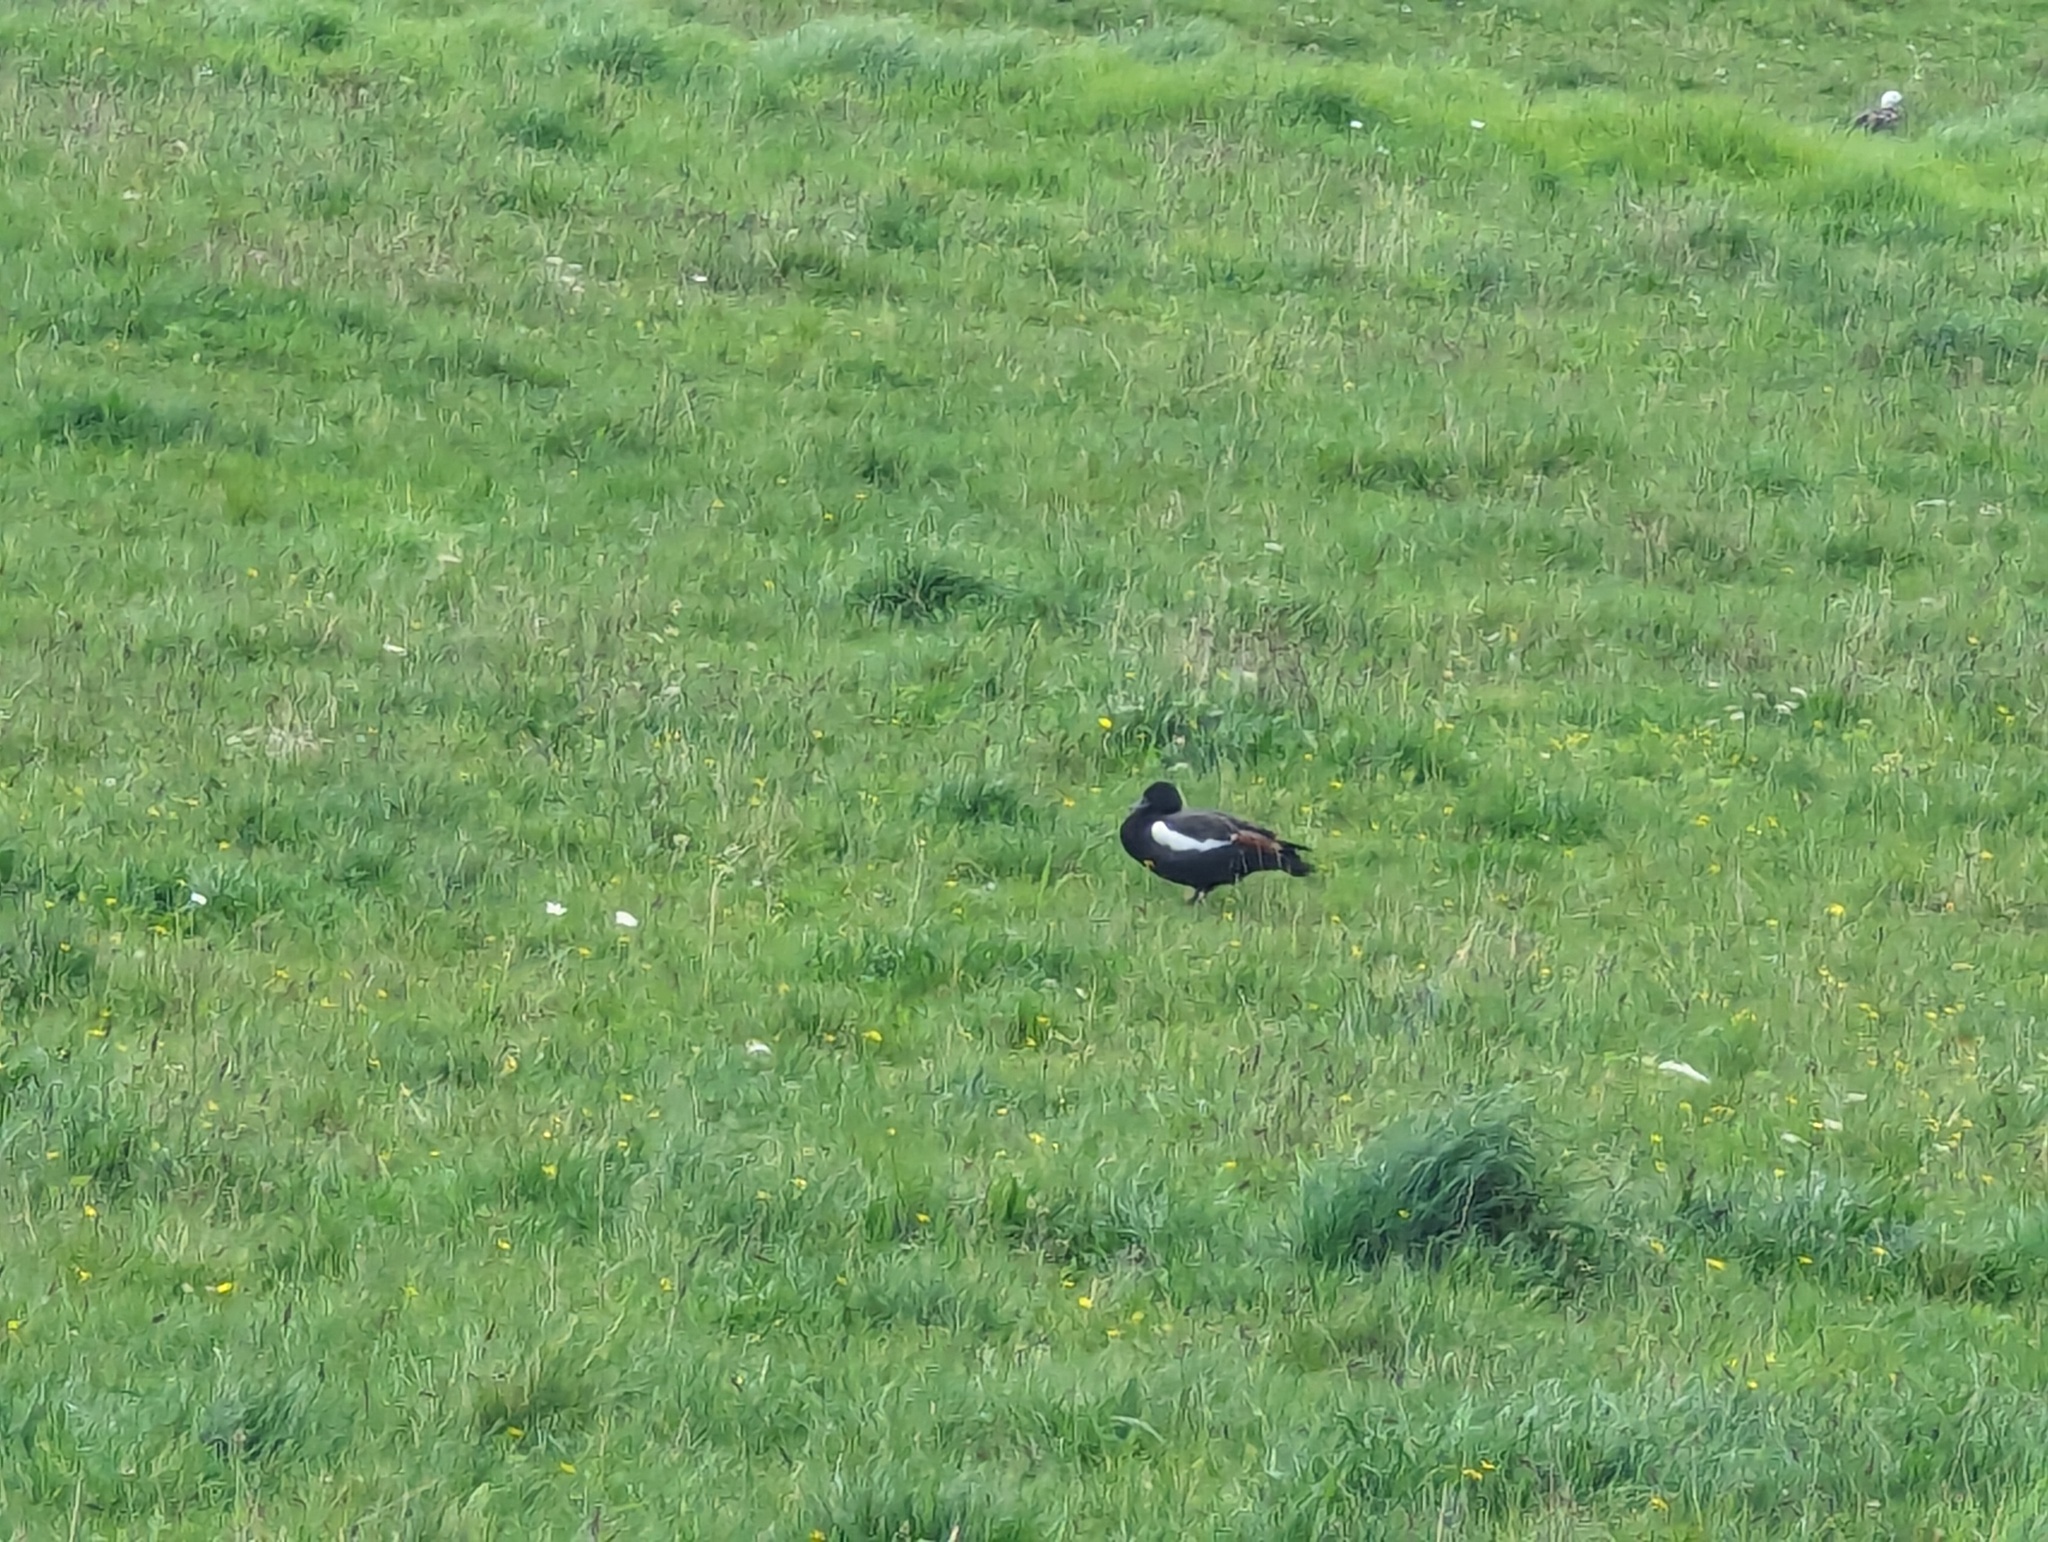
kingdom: Animalia
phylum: Chordata
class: Aves
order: Anseriformes
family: Anatidae
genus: Tadorna
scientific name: Tadorna variegata
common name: Paradise shelduck
